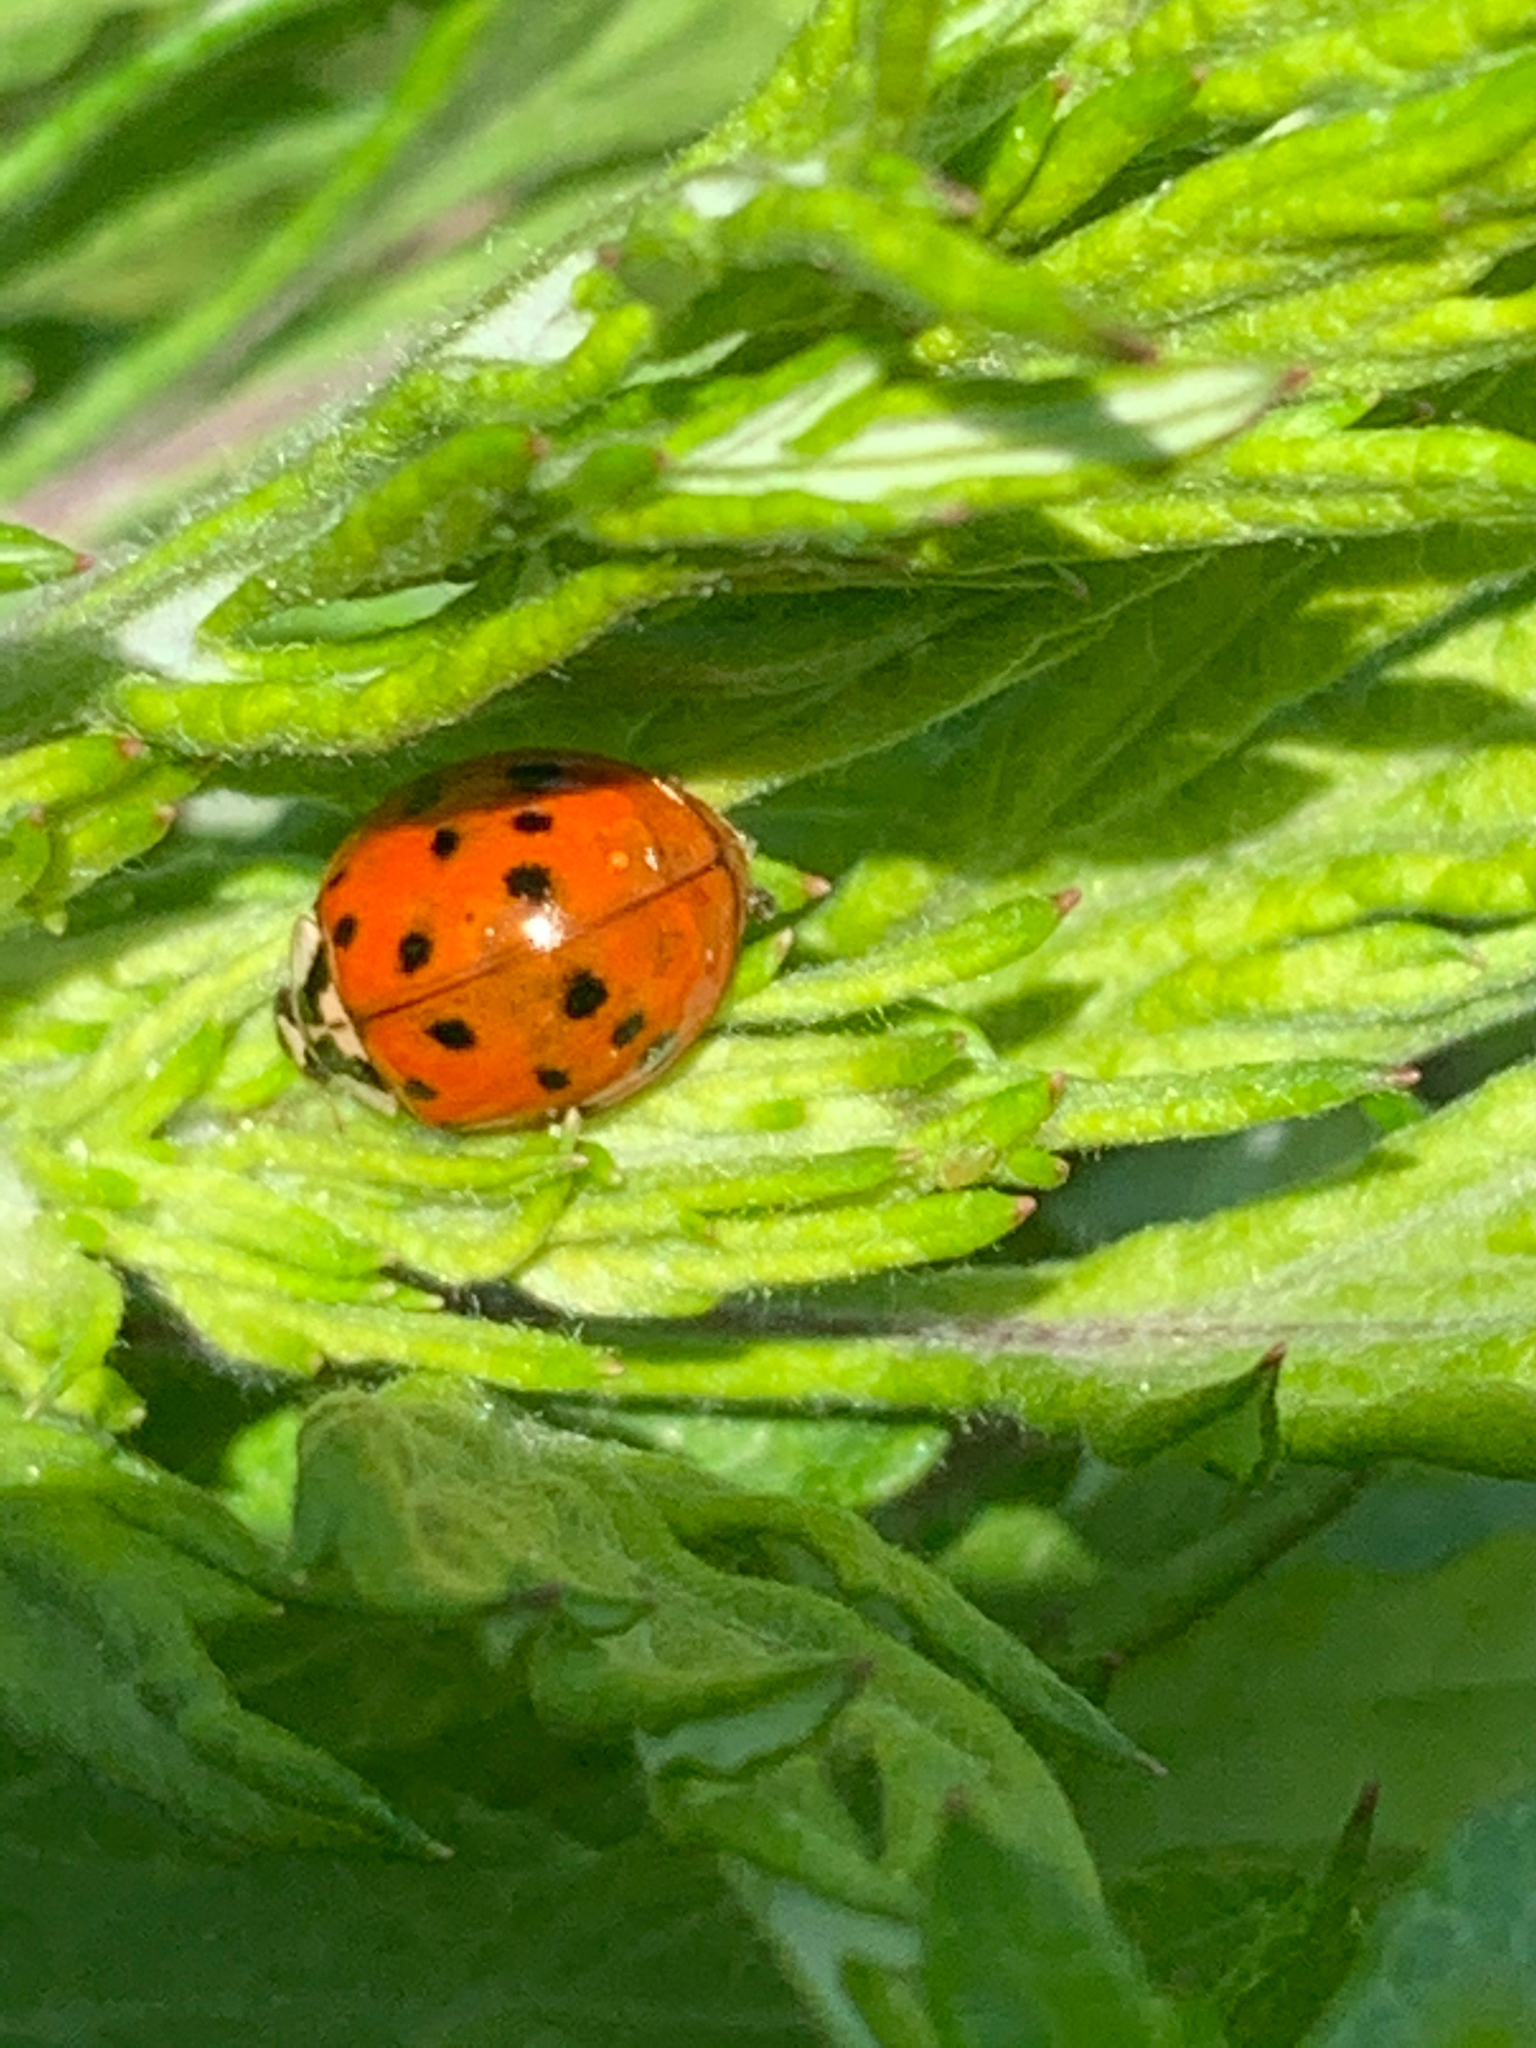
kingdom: Animalia
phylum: Arthropoda
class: Insecta
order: Coleoptera
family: Coccinellidae
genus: Harmonia
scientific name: Harmonia axyridis
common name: Harlequin ladybird
